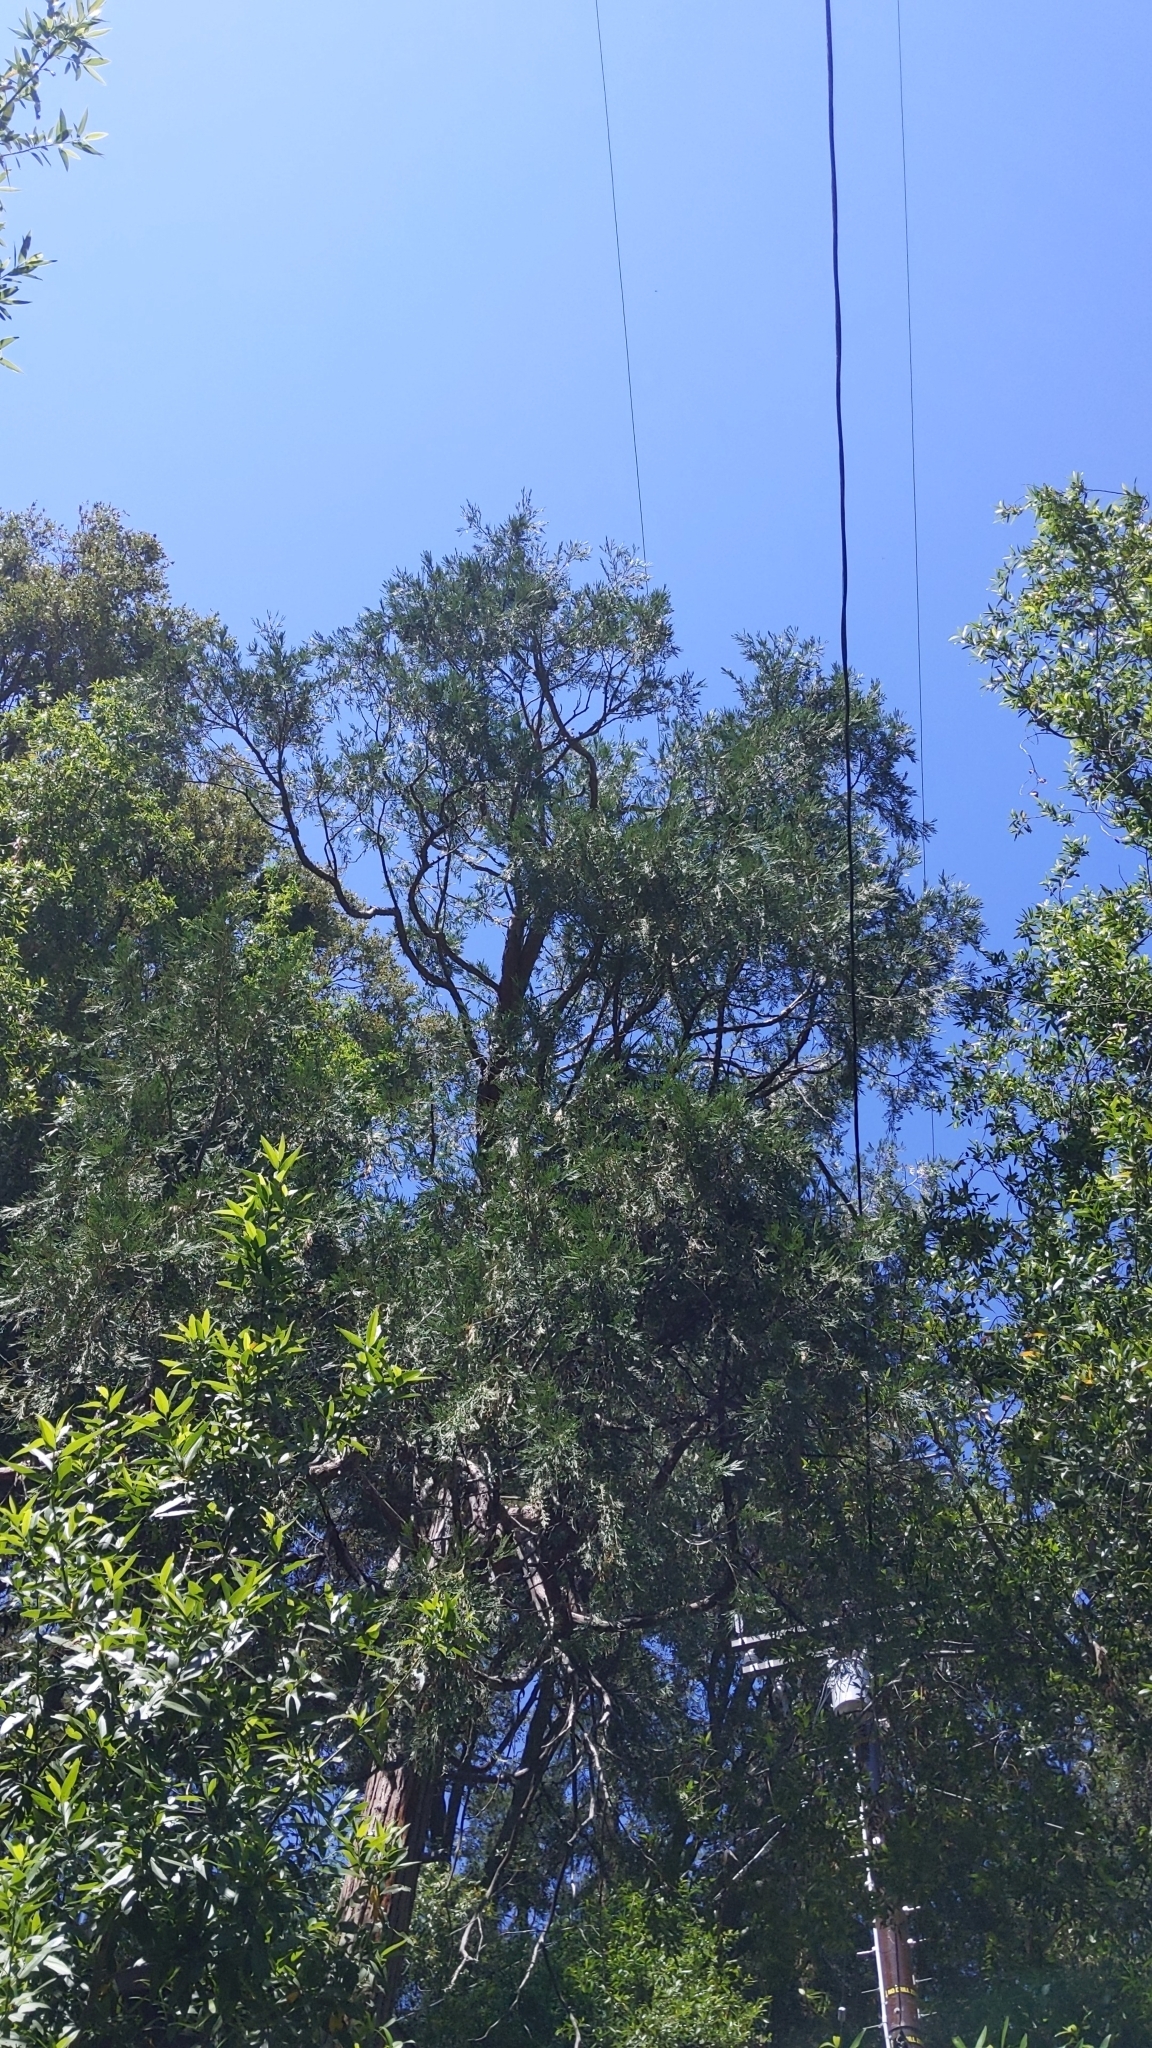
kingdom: Plantae
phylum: Tracheophyta
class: Pinopsida
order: Pinales
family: Cupressaceae
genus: Calocedrus
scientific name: Calocedrus decurrens
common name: Californian incense-cedar
